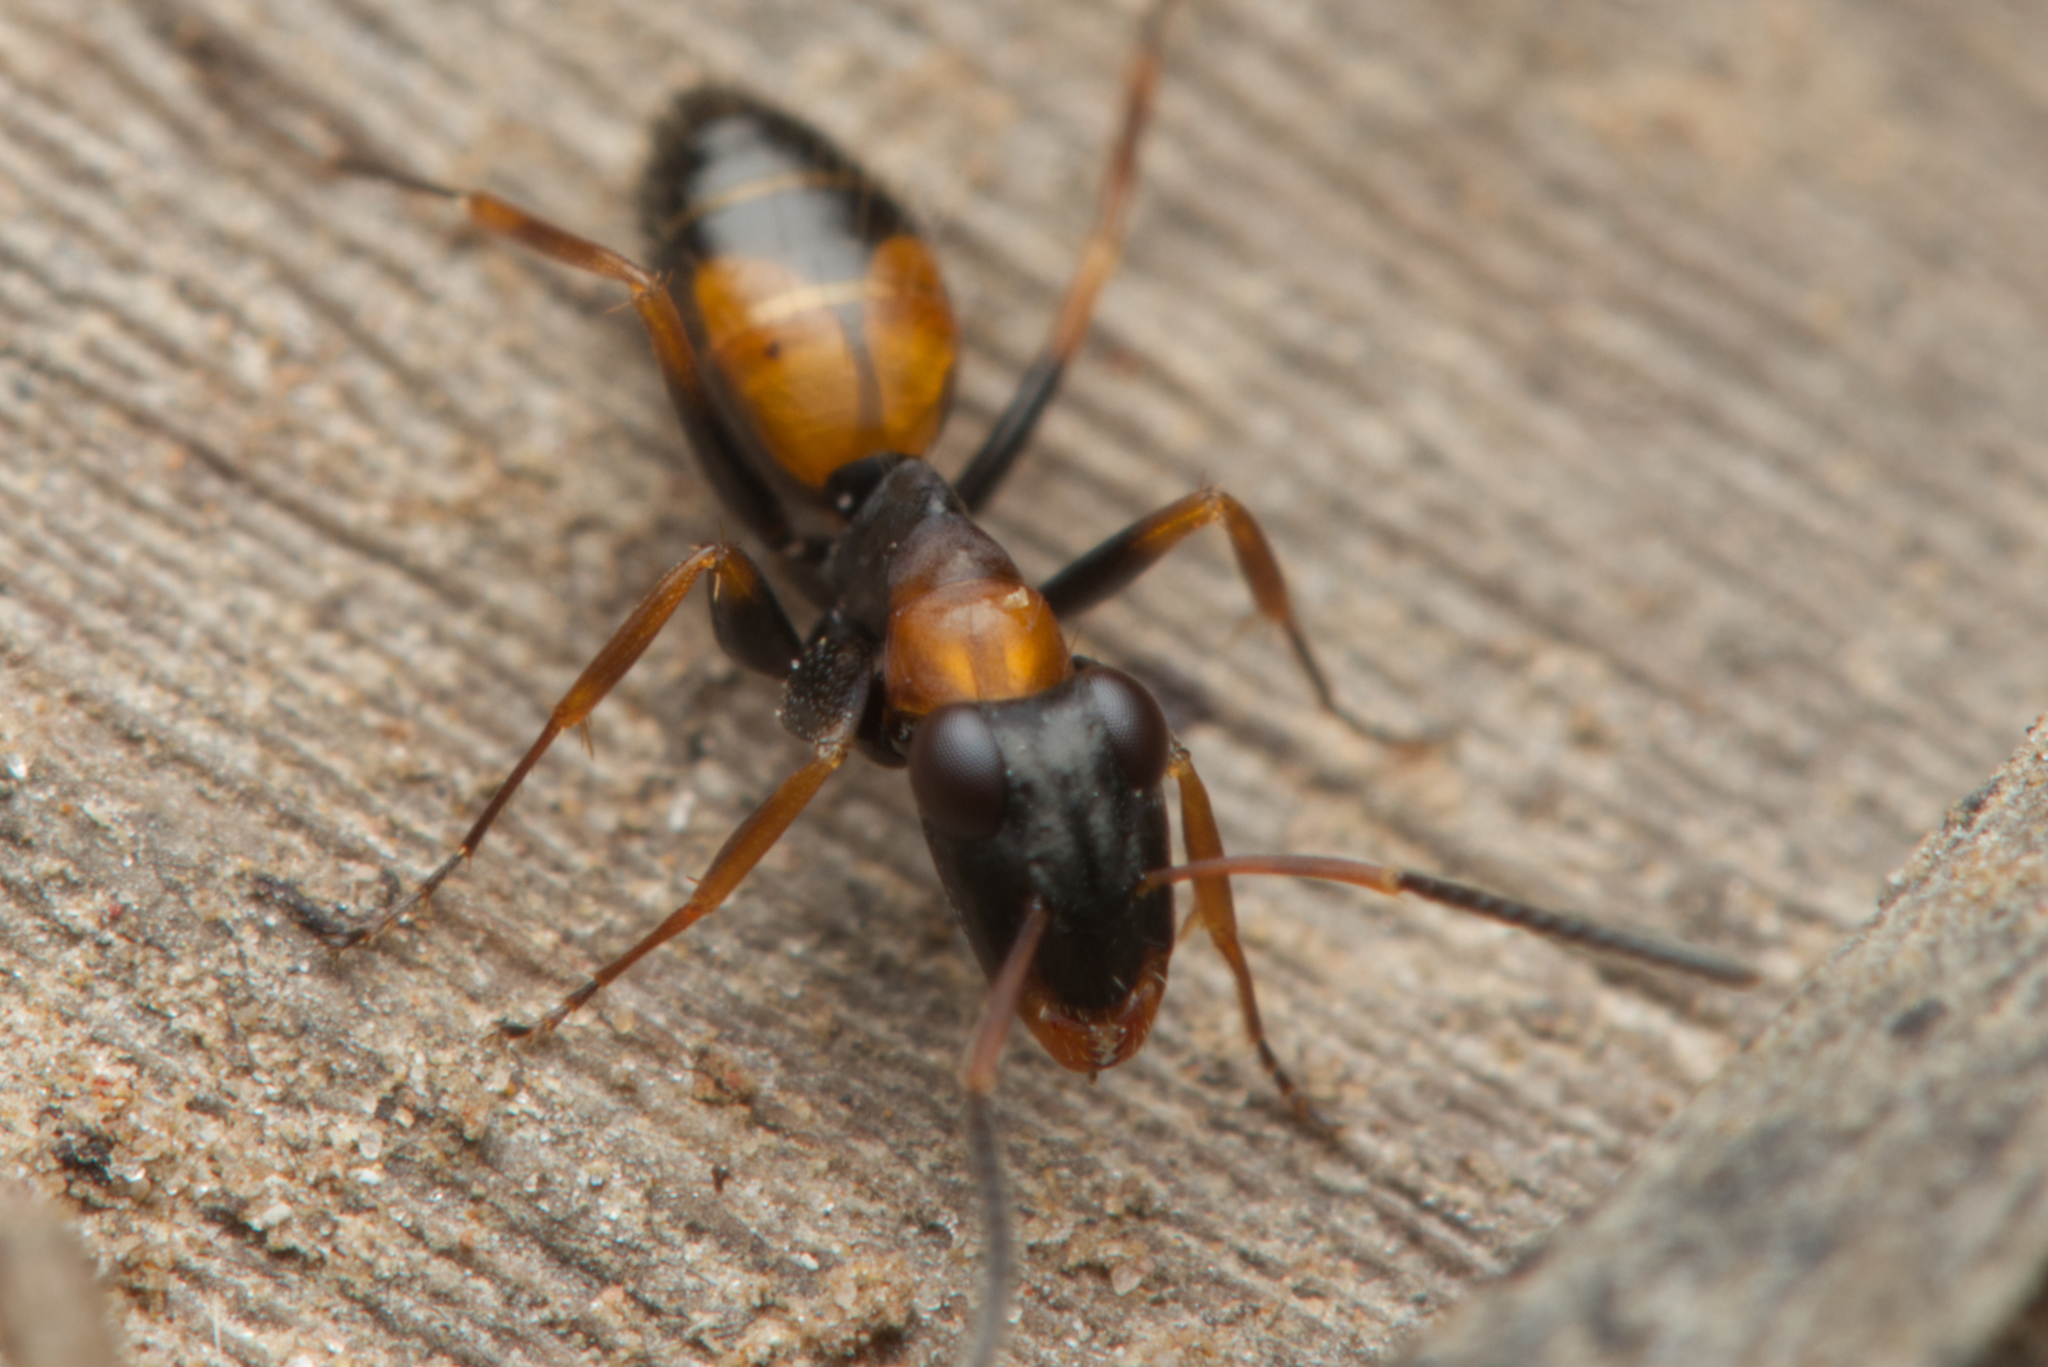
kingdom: Animalia
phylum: Arthropoda
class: Insecta
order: Hymenoptera
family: Formicidae
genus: Opisthopsis
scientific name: Opisthopsis pictus
